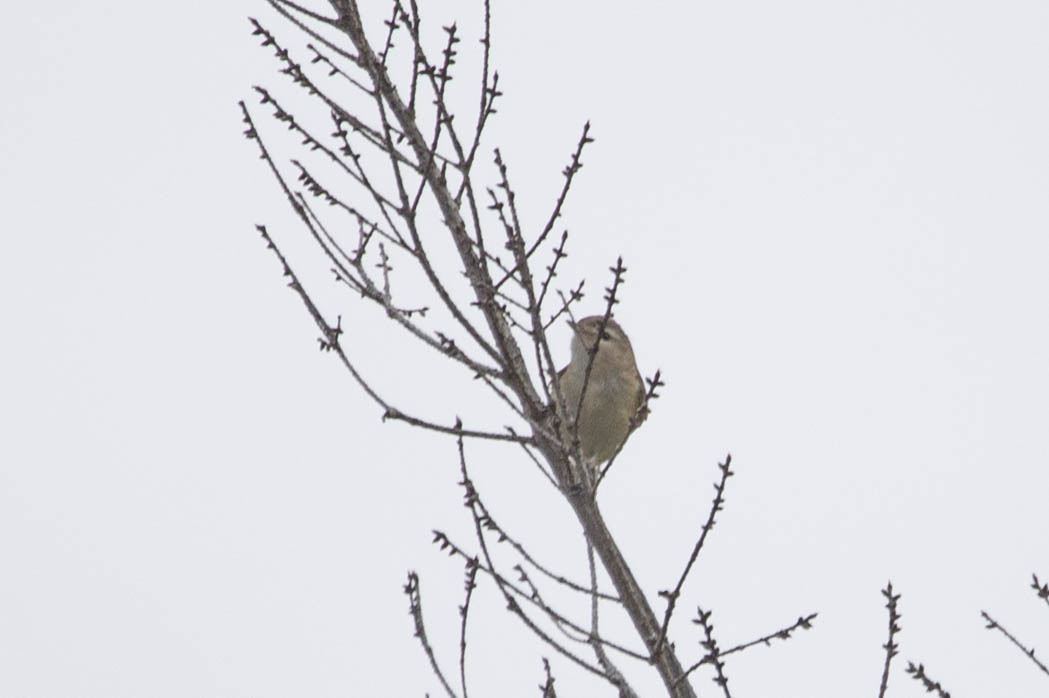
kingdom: Animalia
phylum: Chordata
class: Aves
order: Passeriformes
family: Vireonidae
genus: Vireo
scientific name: Vireo gilvus
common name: Warbling vireo
